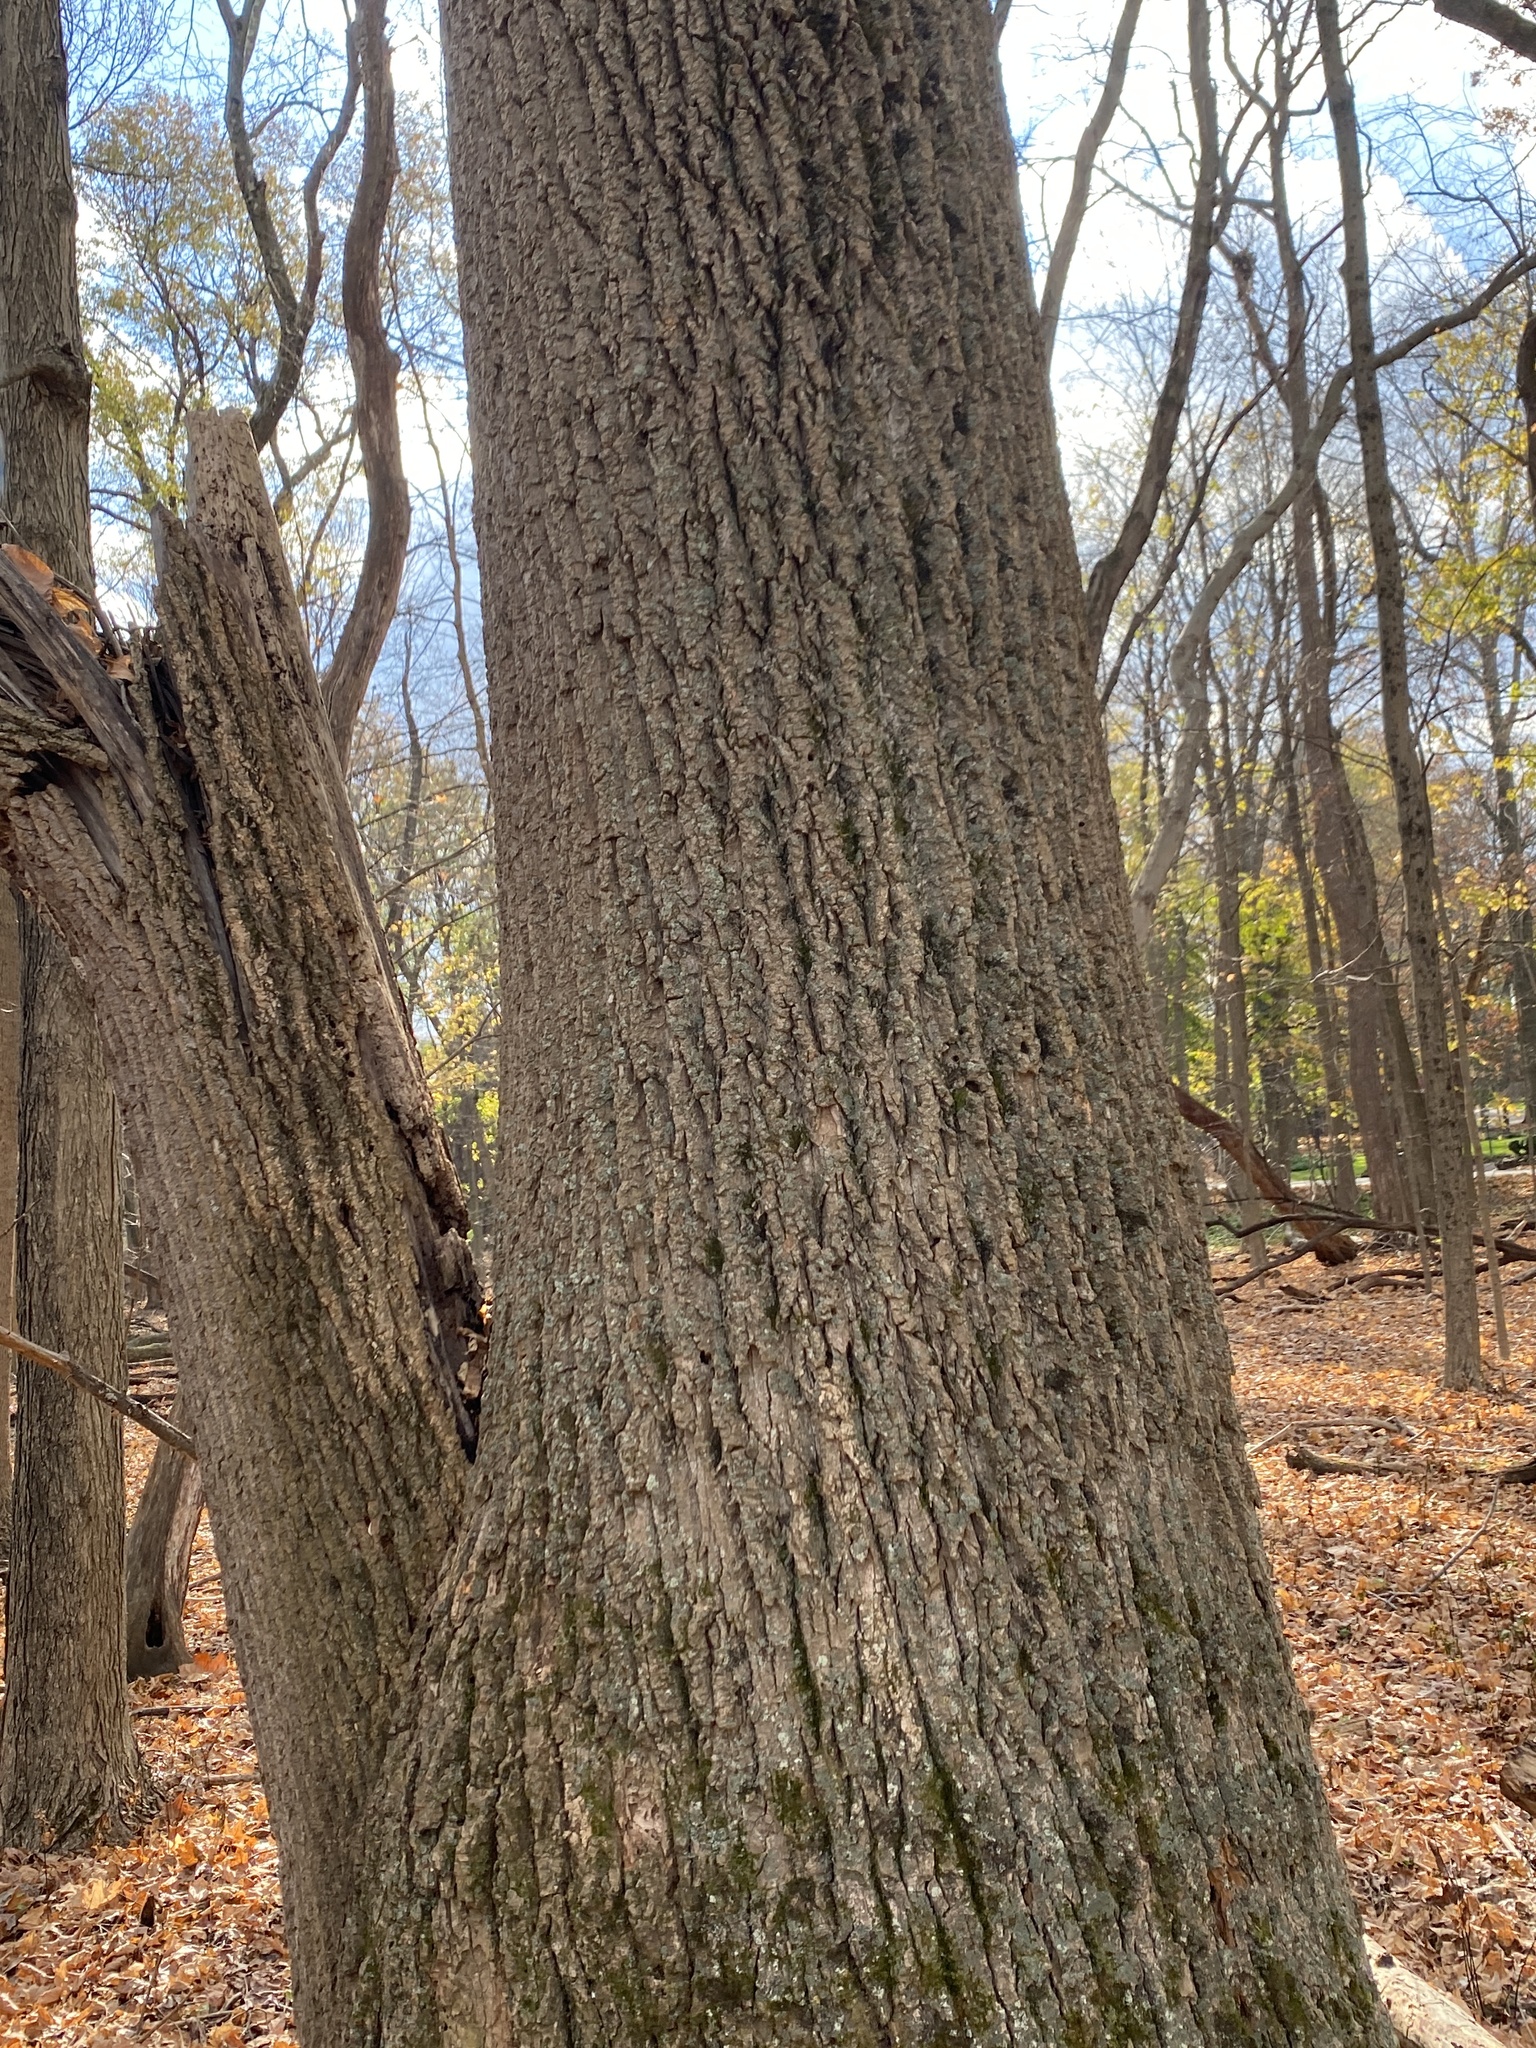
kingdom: Plantae
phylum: Tracheophyta
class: Magnoliopsida
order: Magnoliales
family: Magnoliaceae
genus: Liriodendron
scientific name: Liriodendron tulipifera
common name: Tulip tree
